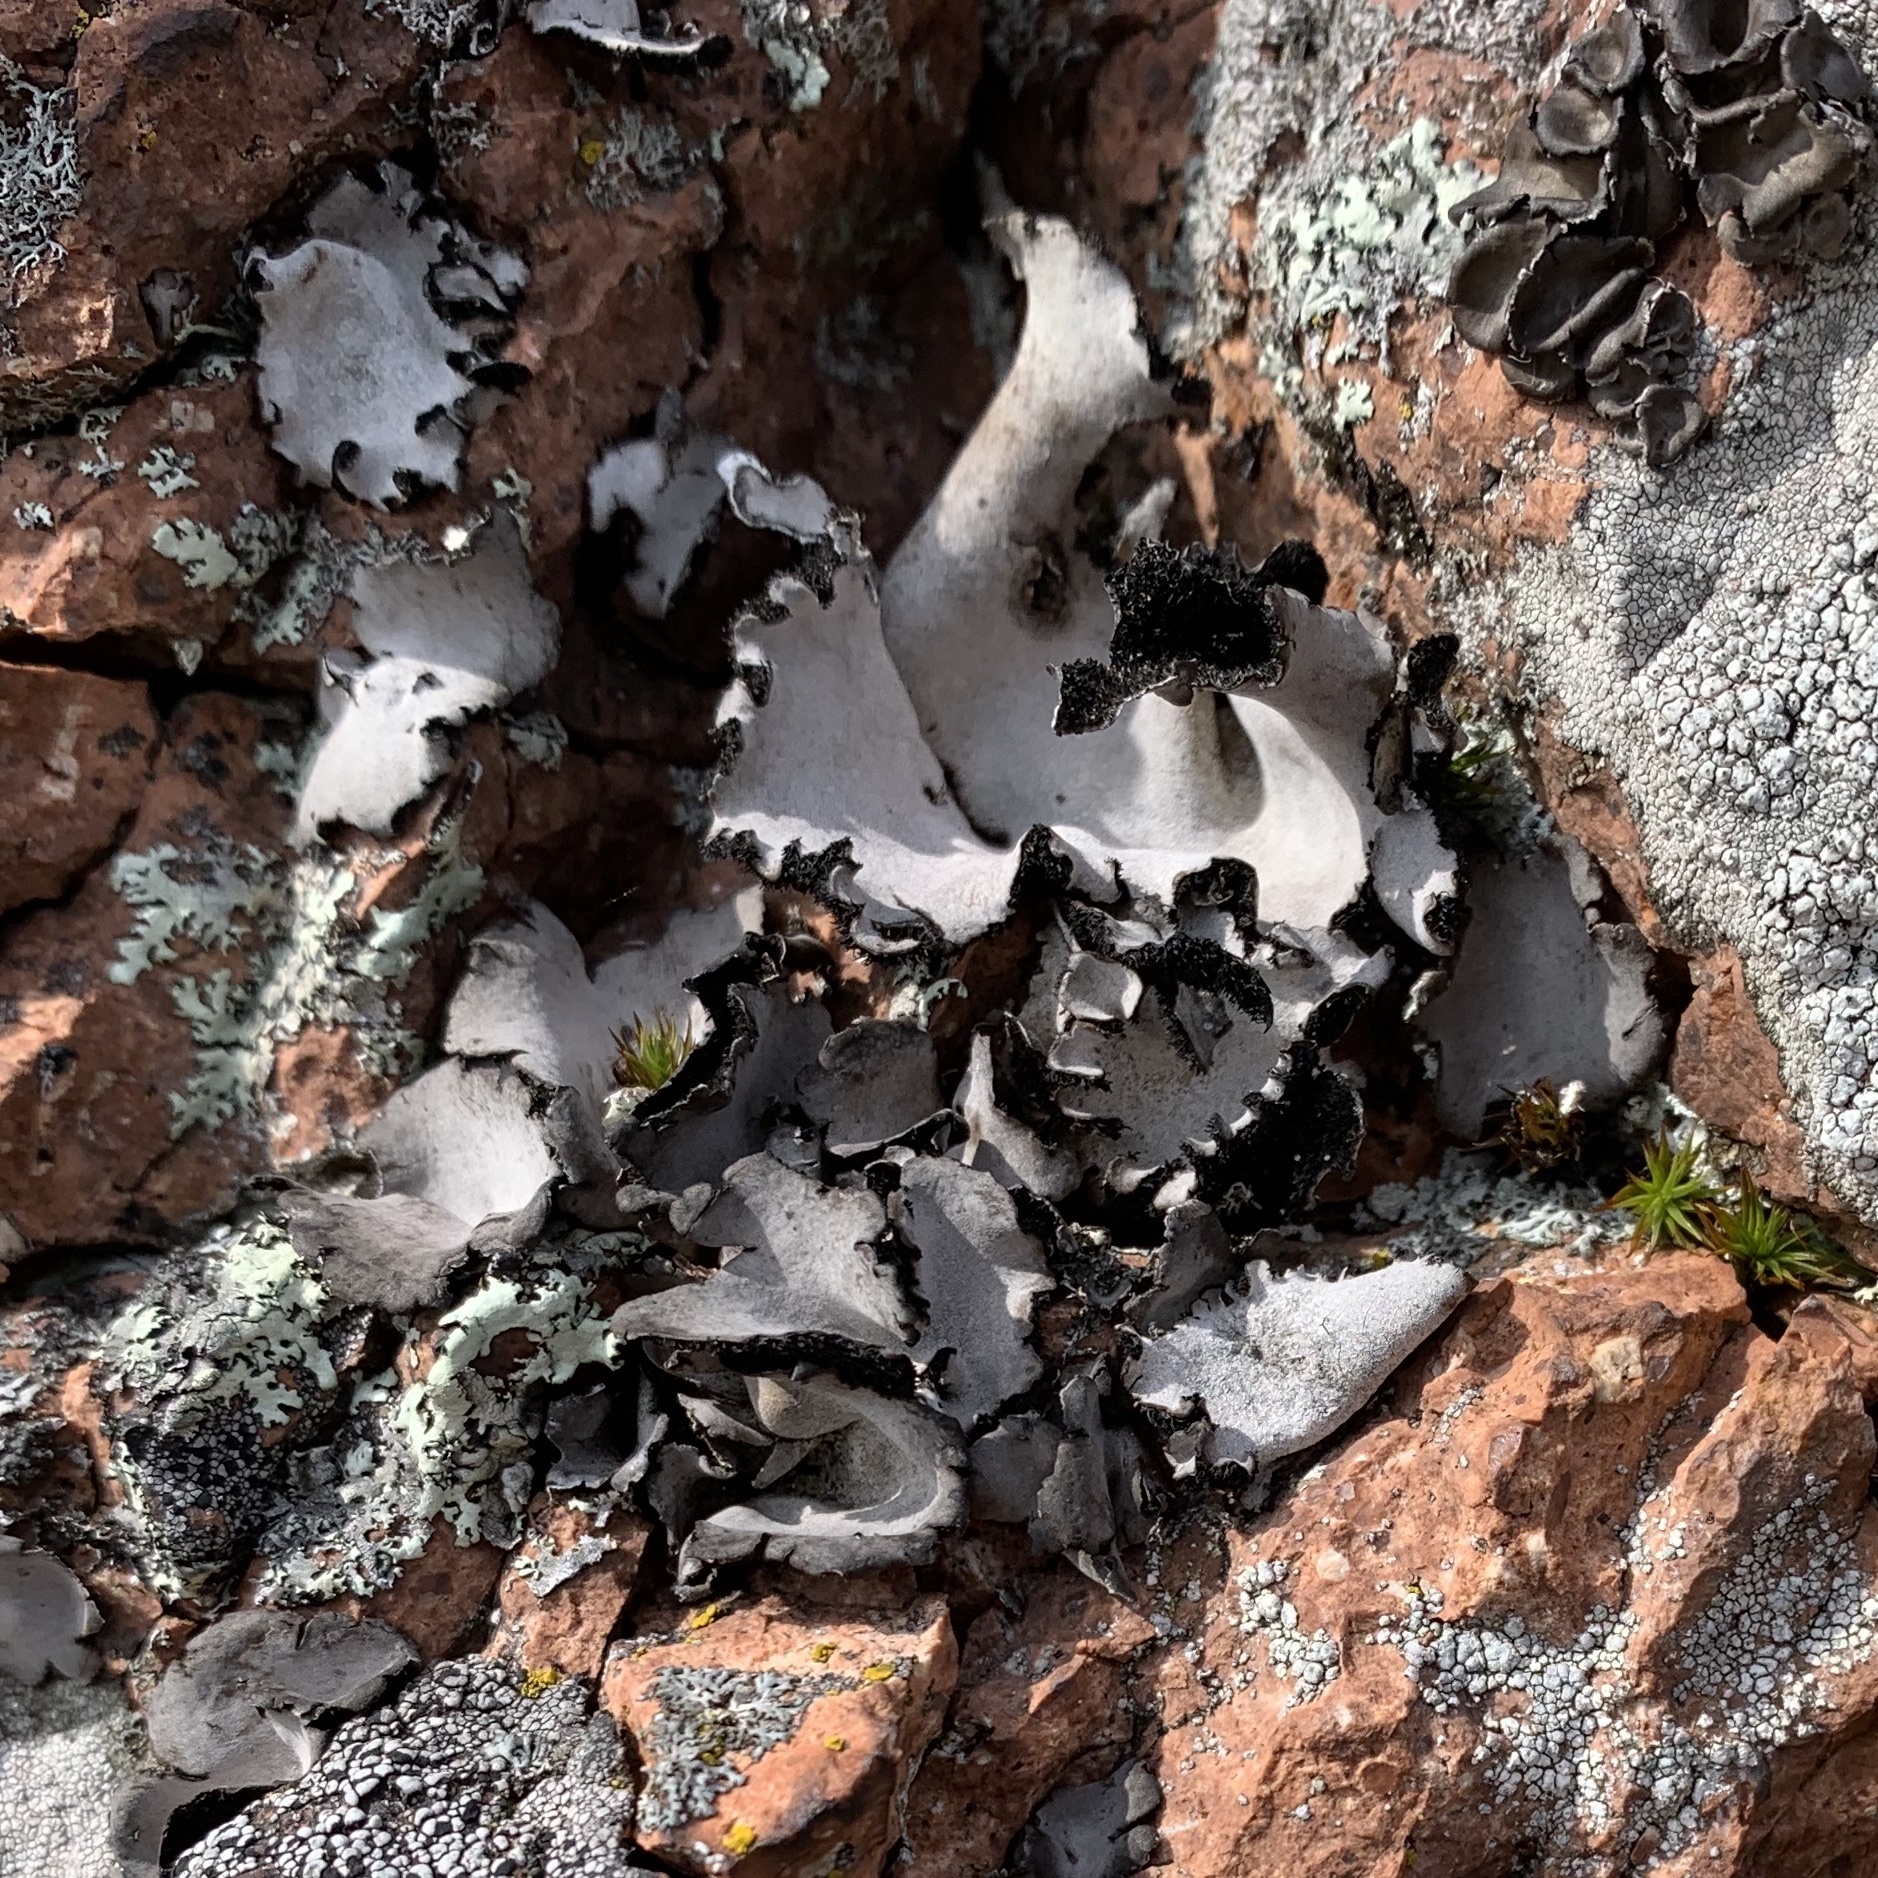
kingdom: Fungi
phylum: Ascomycota
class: Lecanoromycetes
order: Umbilicariales
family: Umbilicariaceae
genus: Umbilicaria
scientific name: Umbilicaria americana
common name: Frosted rock tripe
